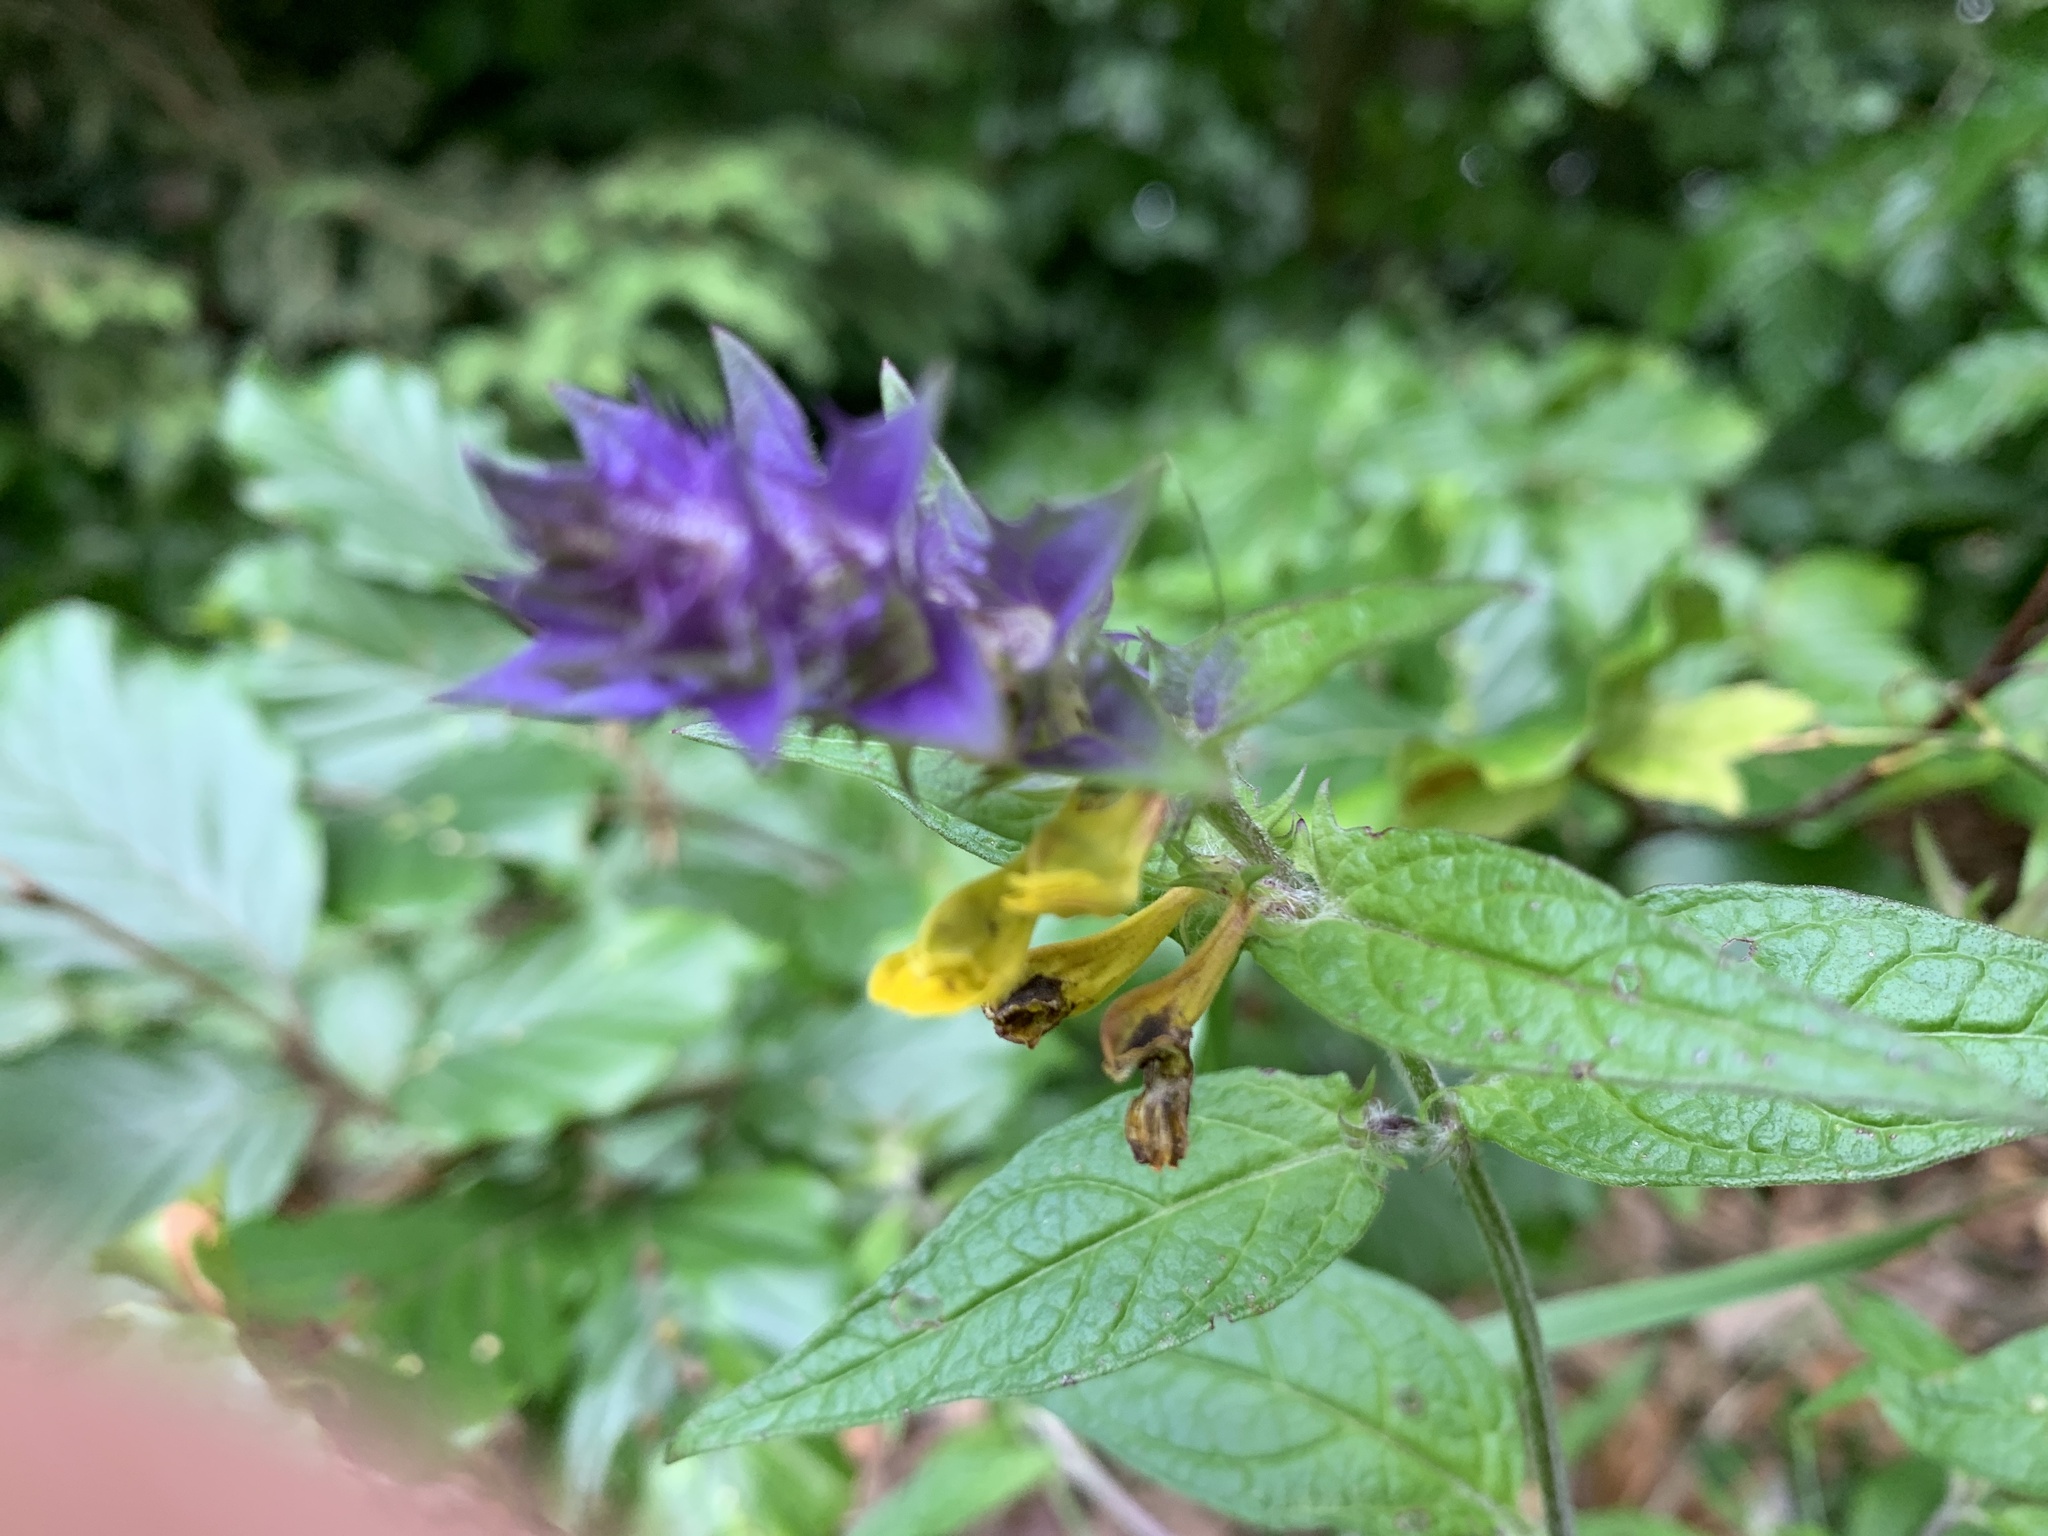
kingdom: Plantae
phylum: Tracheophyta
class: Magnoliopsida
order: Lamiales
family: Orobanchaceae
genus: Melampyrum
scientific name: Melampyrum nemorosum
